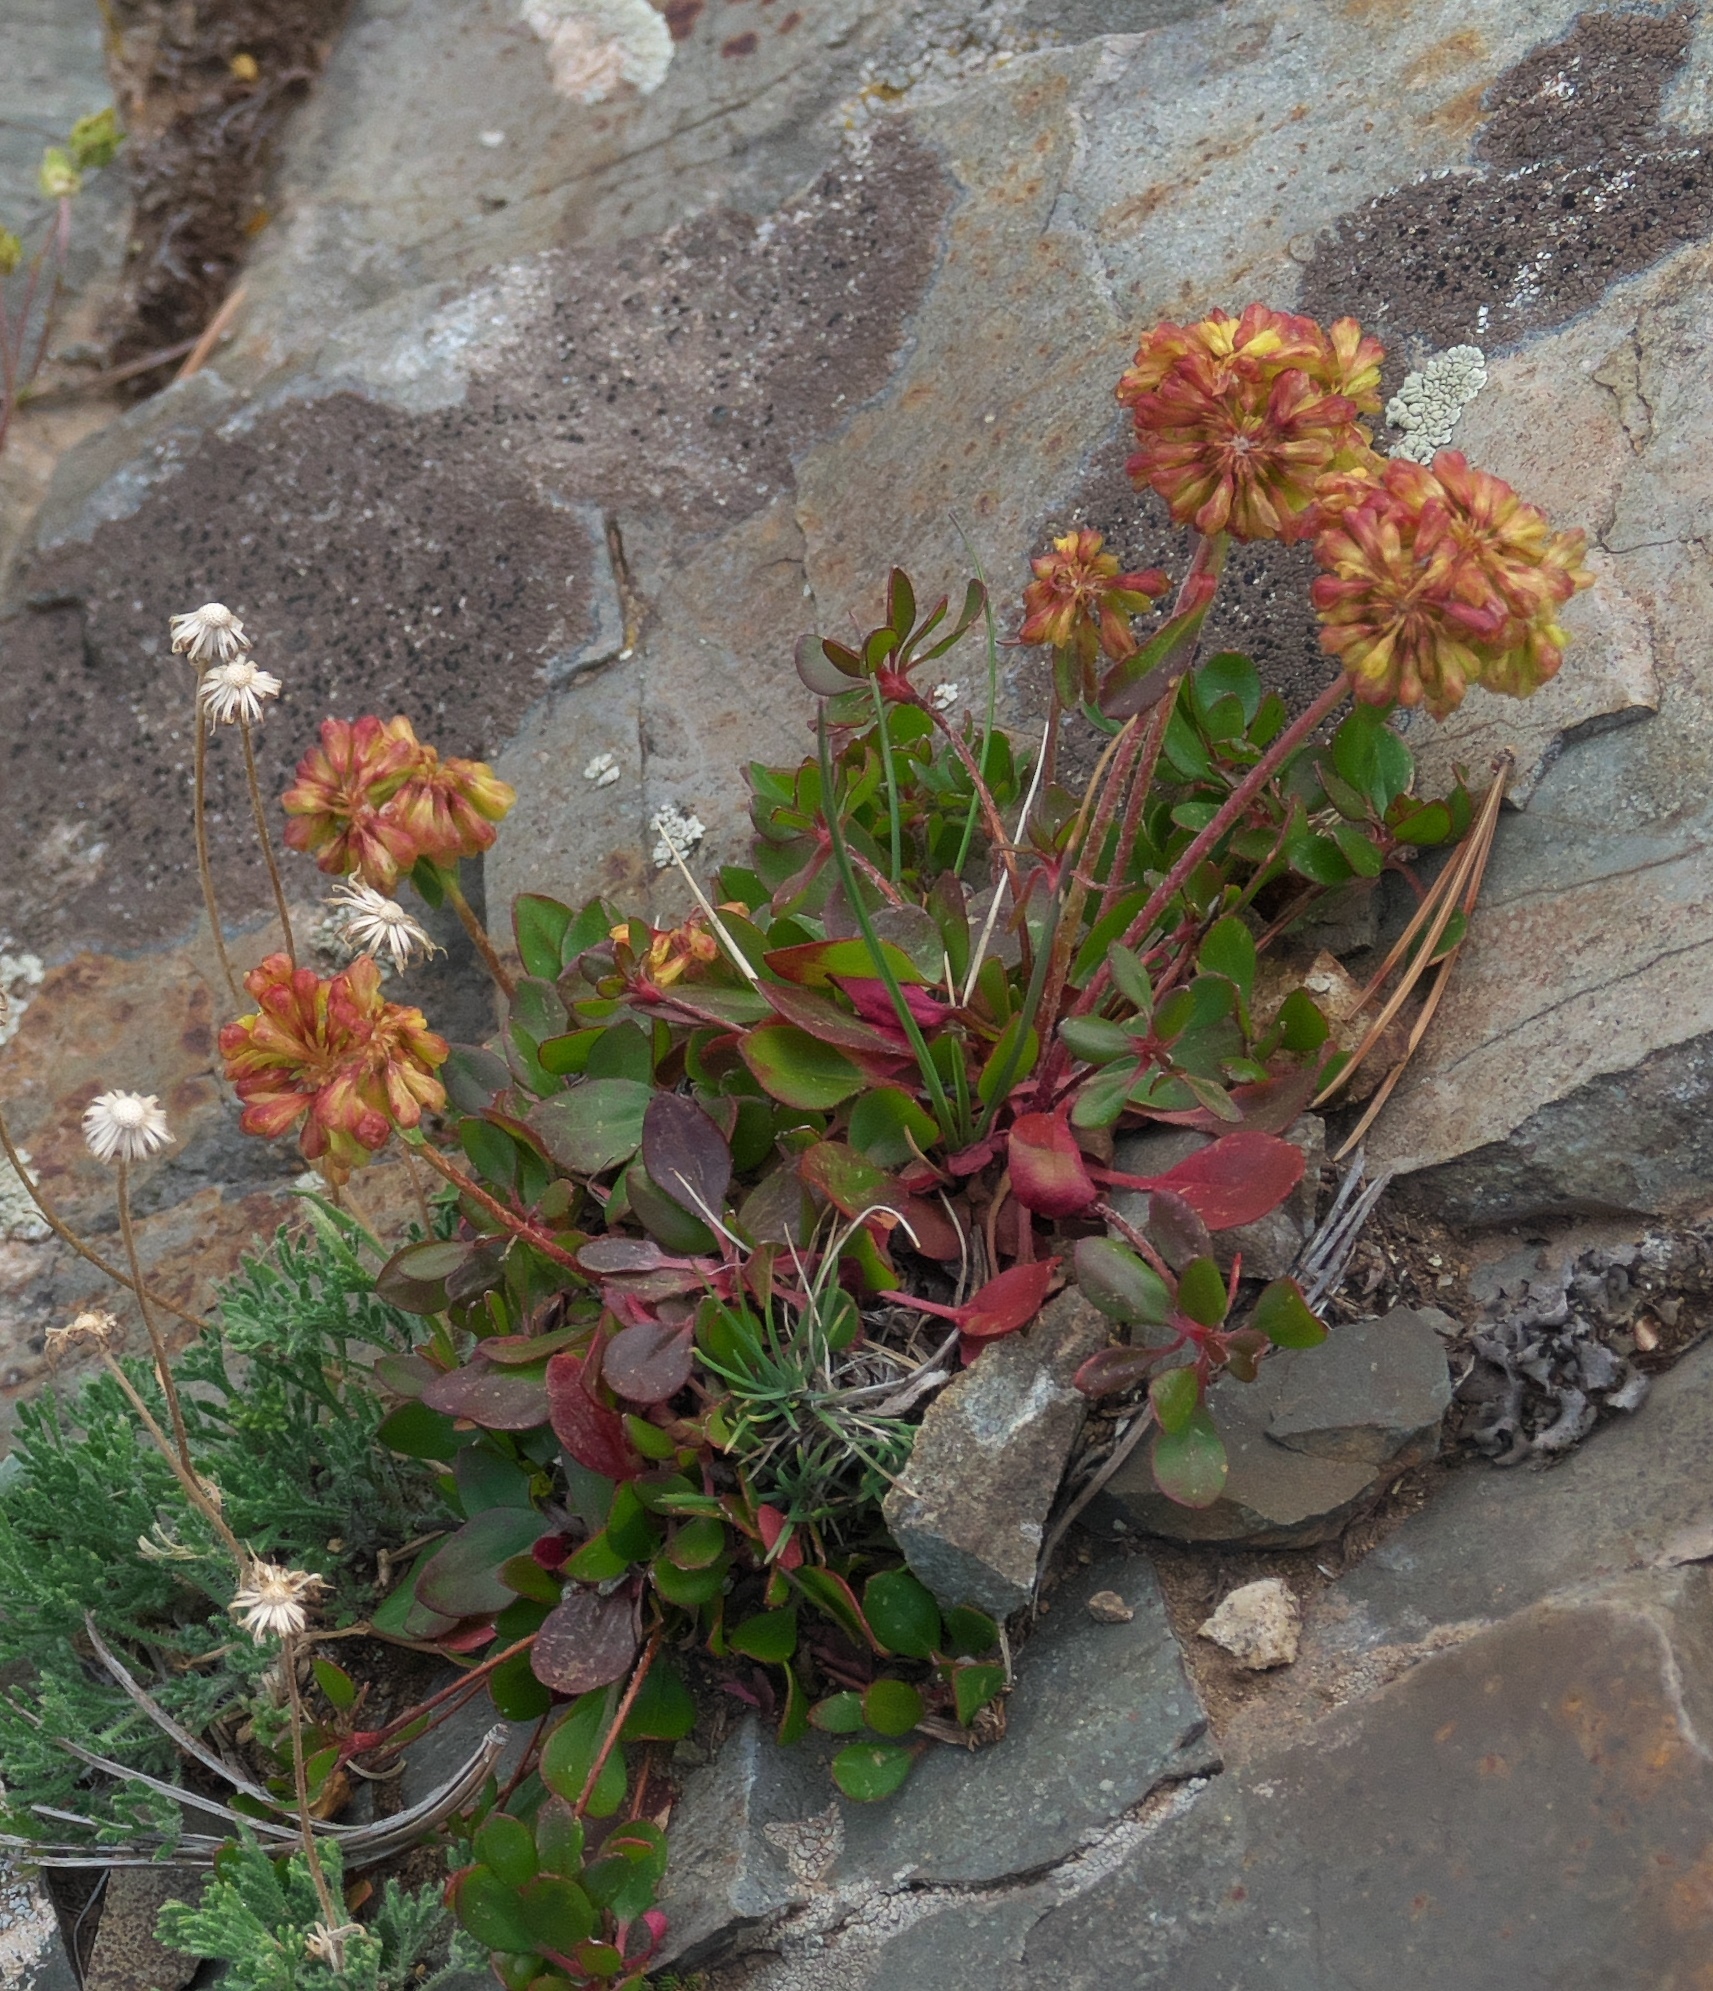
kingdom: Plantae
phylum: Tracheophyta
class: Magnoliopsida
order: Caryophyllales
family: Polygonaceae
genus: Eriogonum
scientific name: Eriogonum umbellatum
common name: Sulfur-buckwheat
